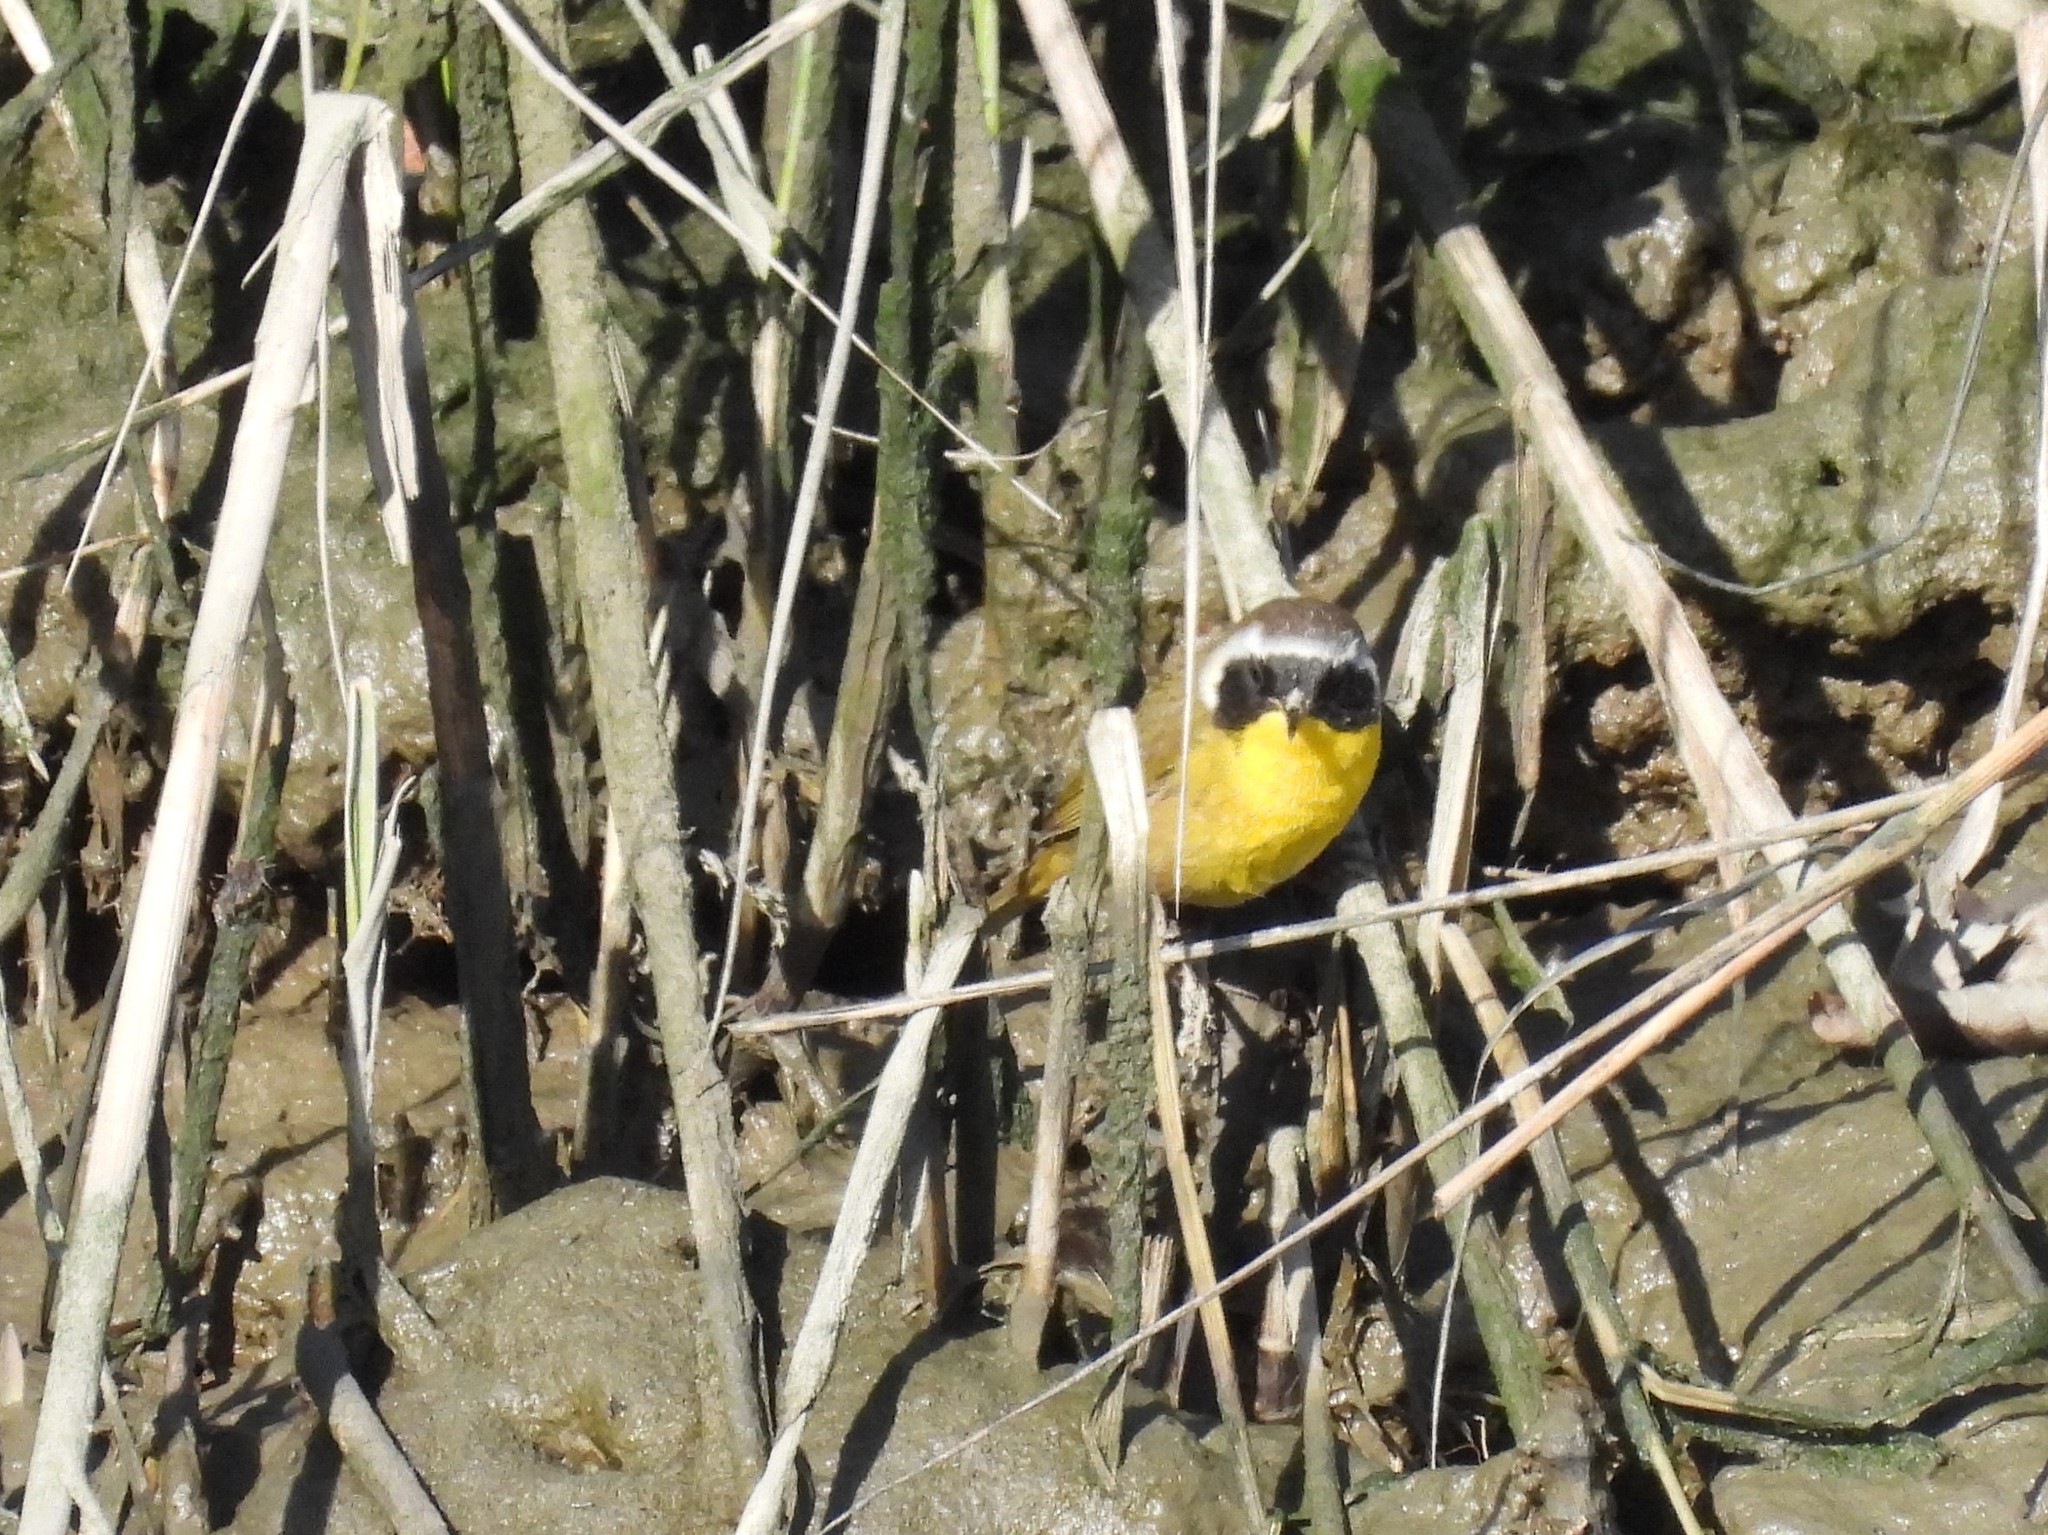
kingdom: Animalia
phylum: Chordata
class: Aves
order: Passeriformes
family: Parulidae
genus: Geothlypis
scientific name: Geothlypis trichas
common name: Common yellowthroat
